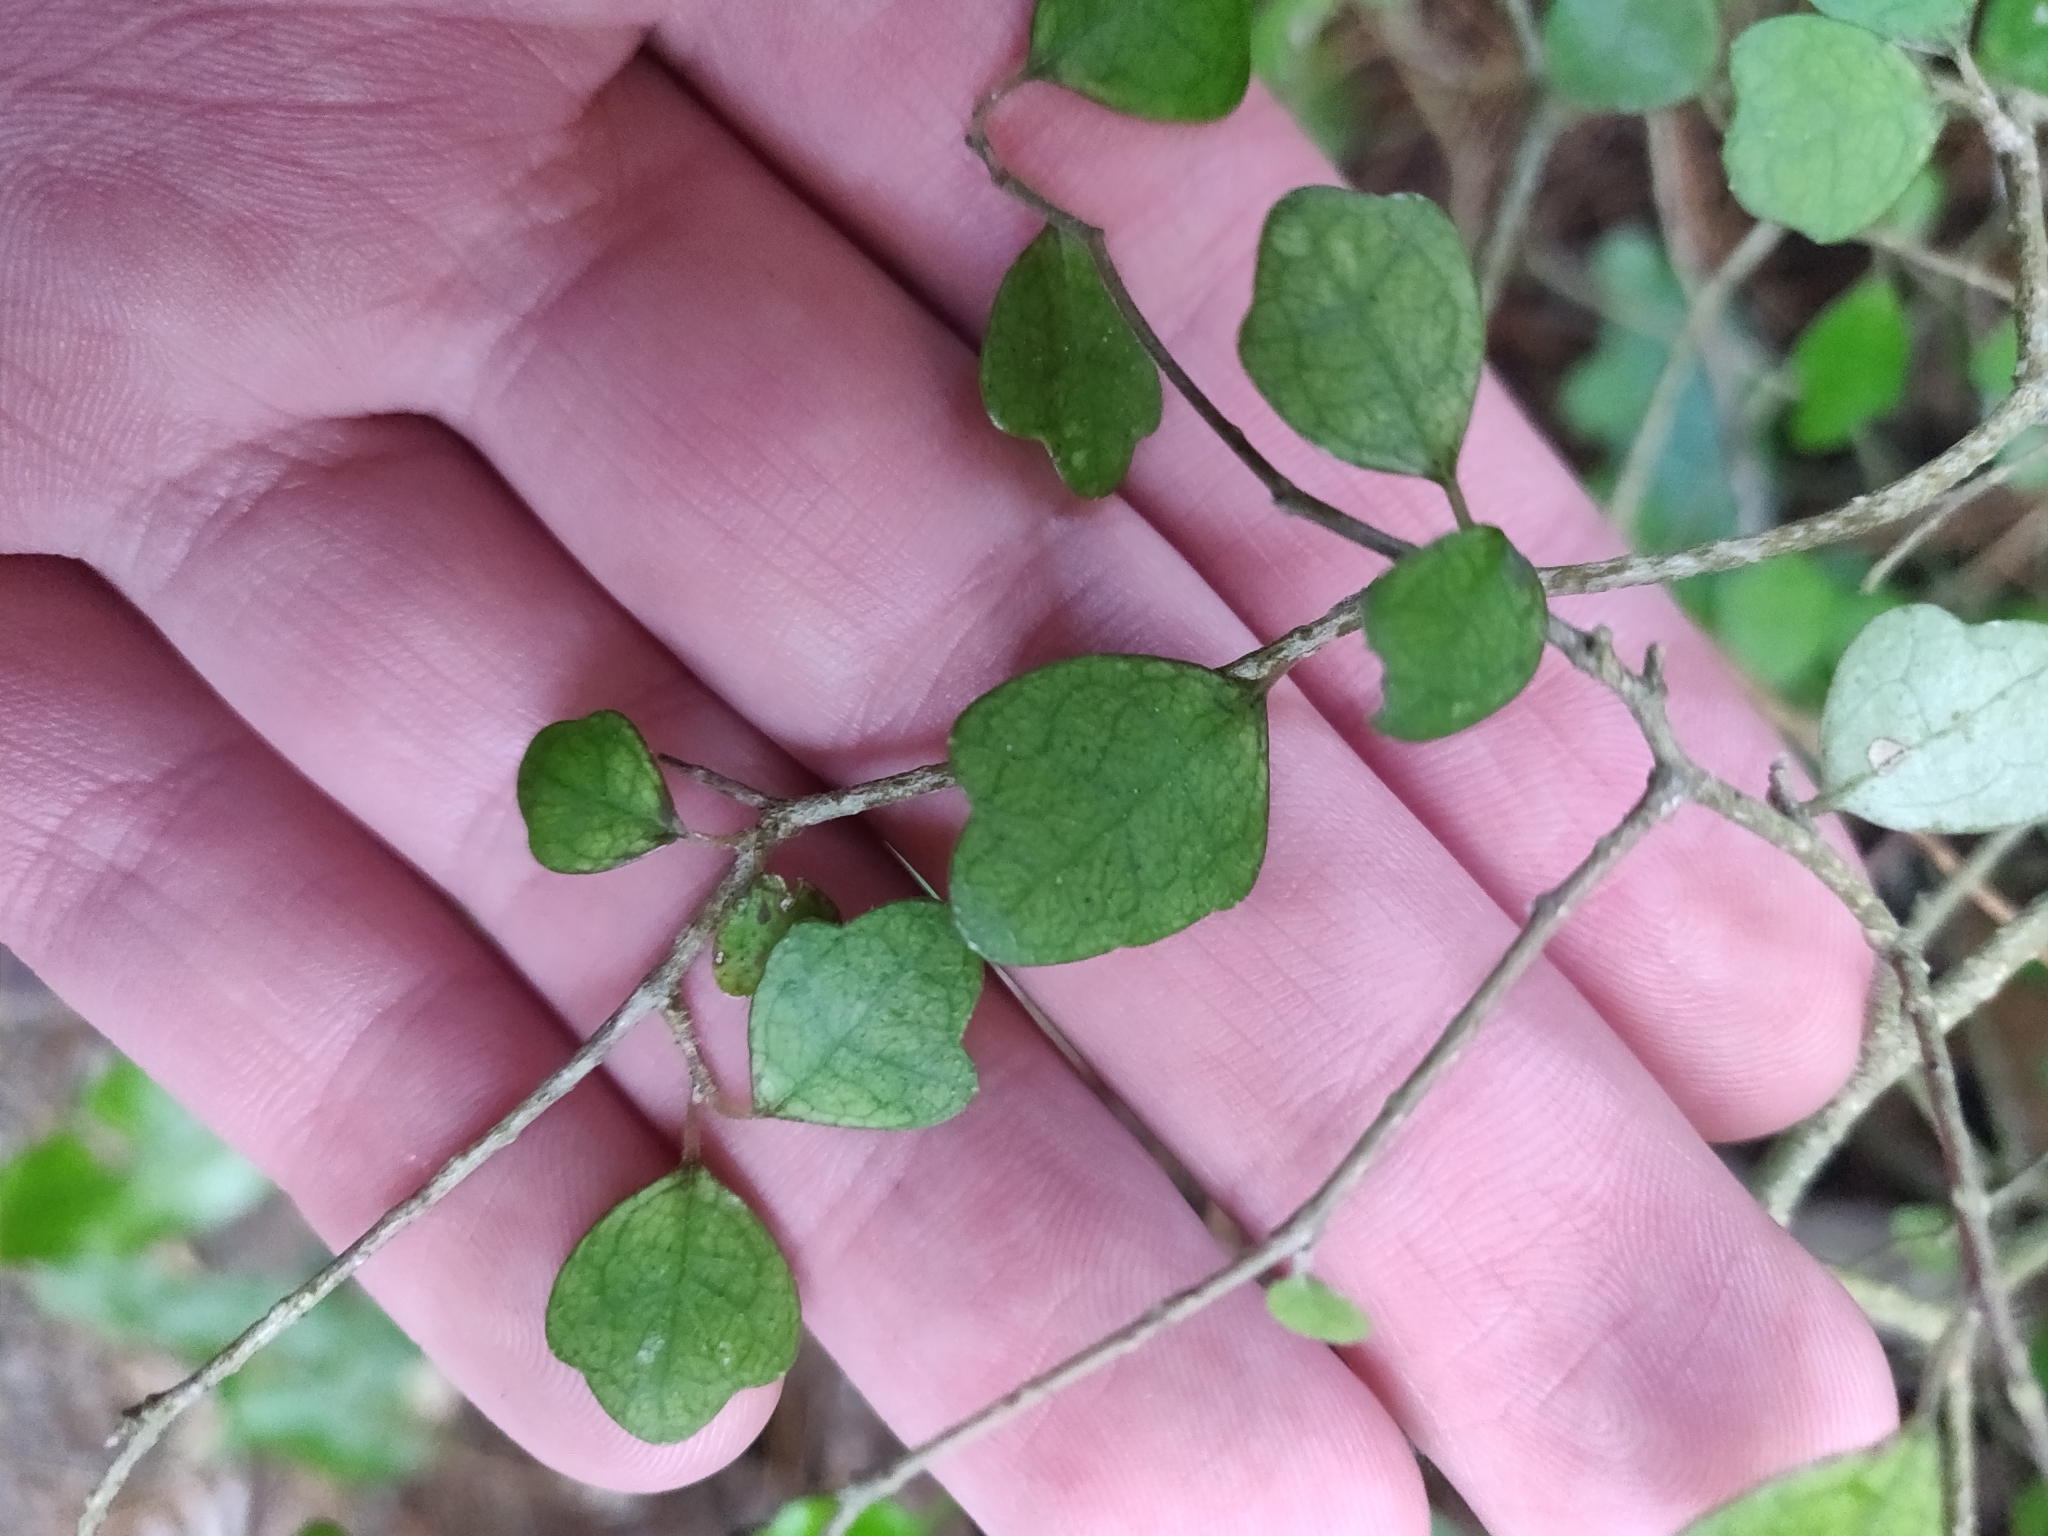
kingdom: Plantae
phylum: Tracheophyta
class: Magnoliopsida
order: Apiales
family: Pennantiaceae
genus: Pennantia
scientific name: Pennantia corymbosa
